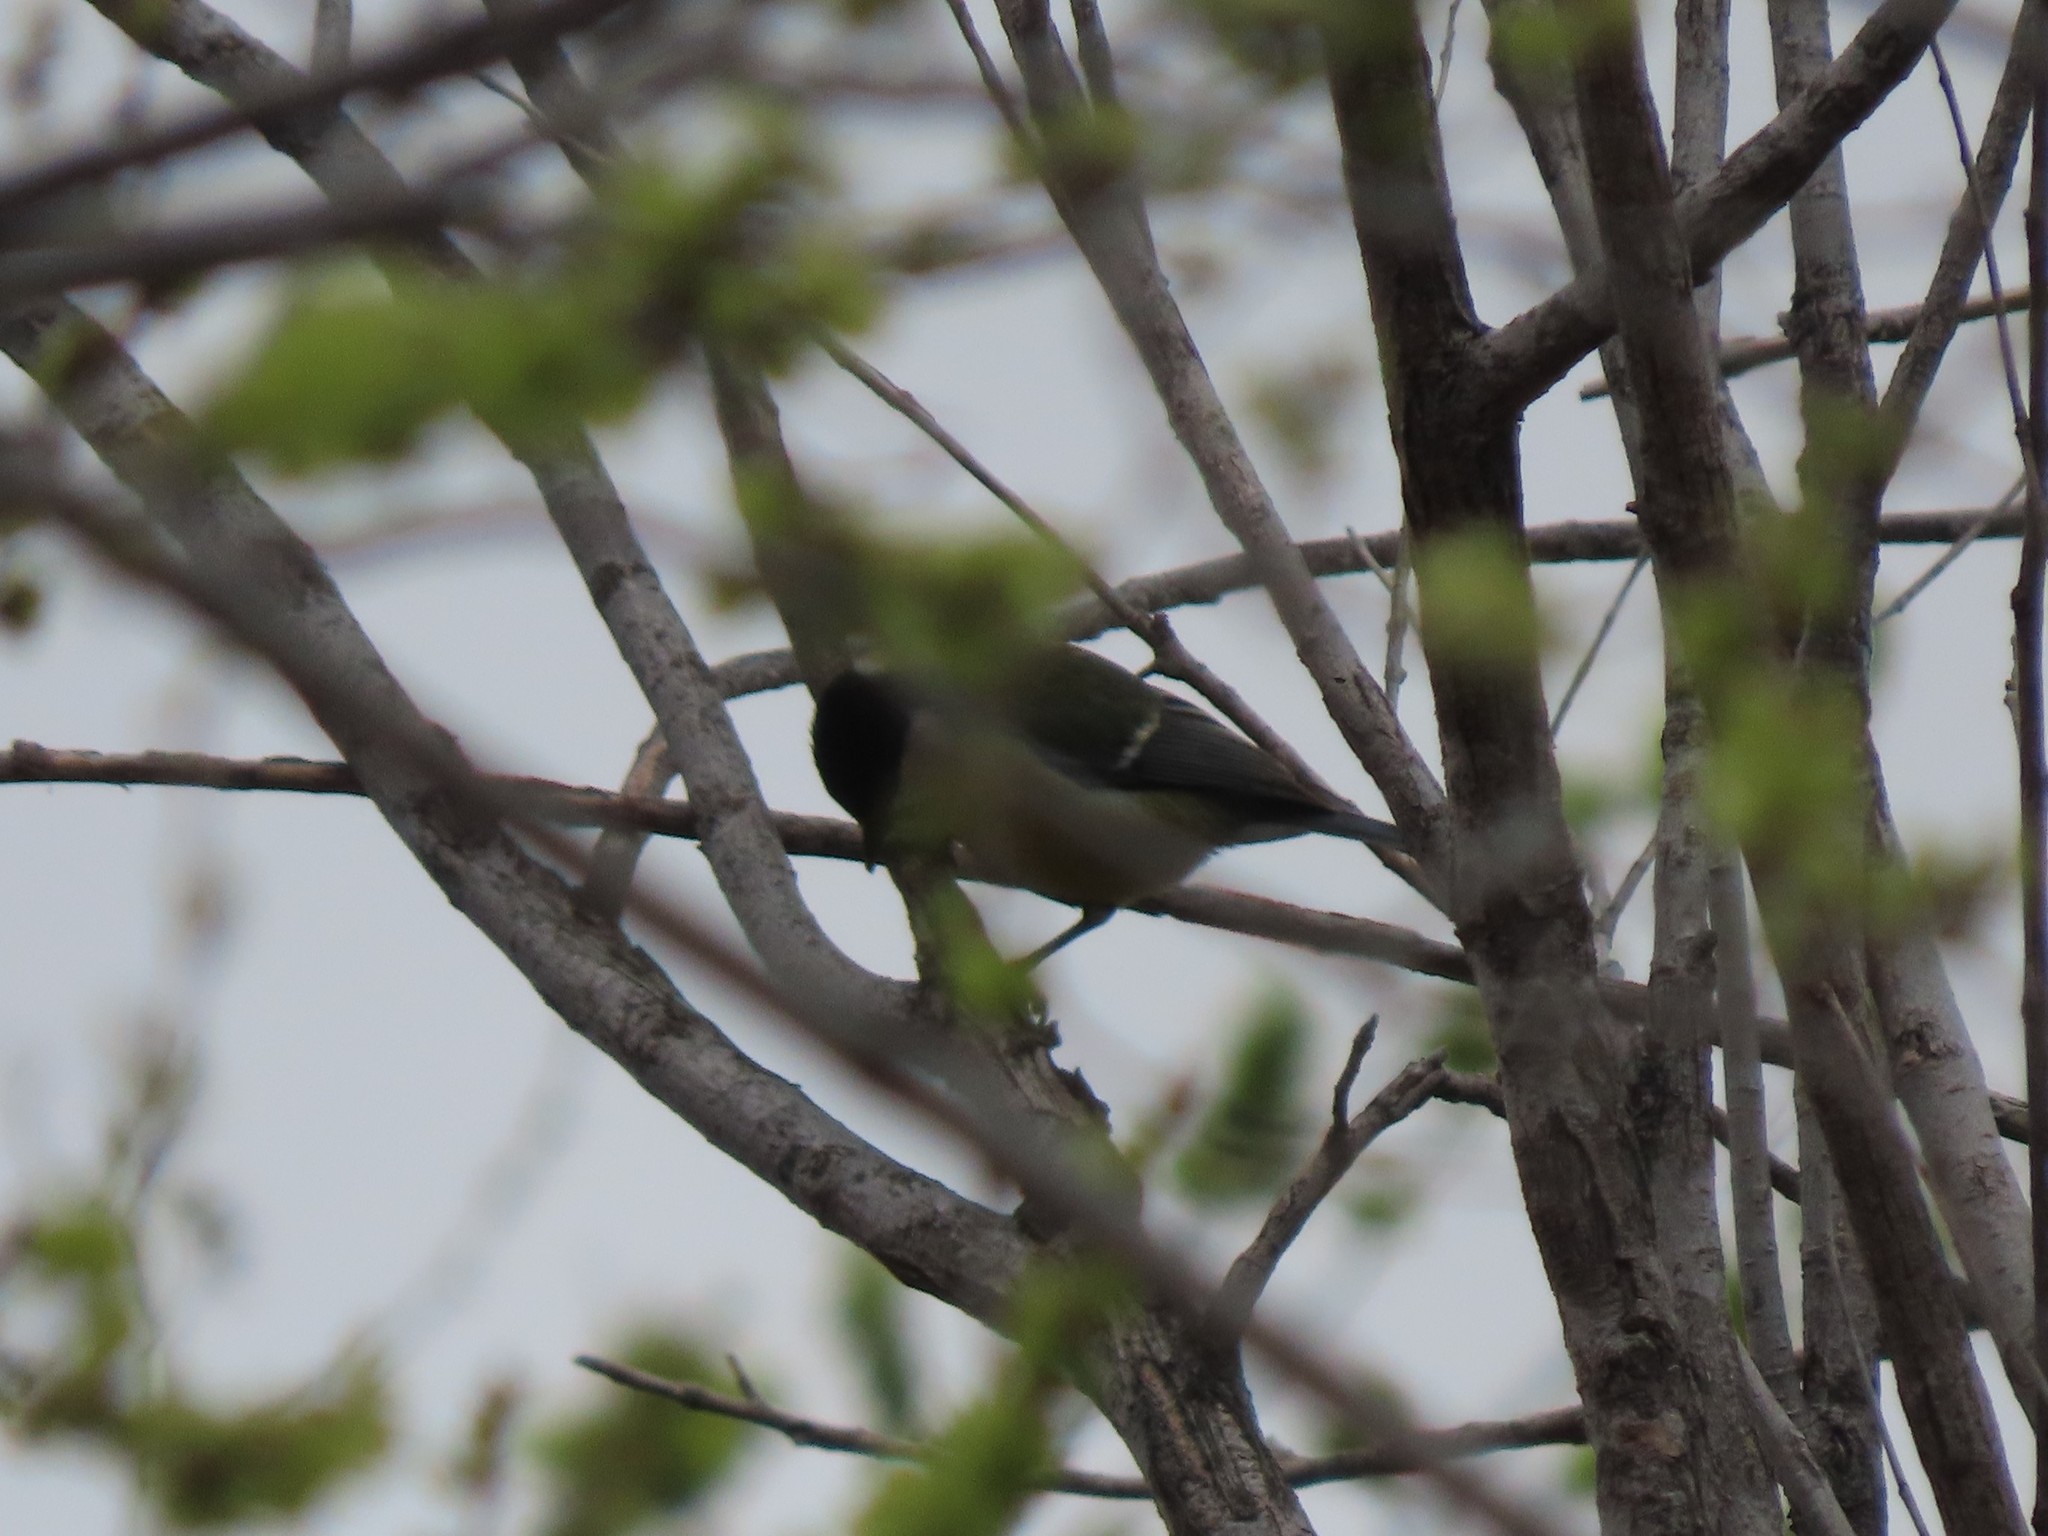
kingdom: Animalia
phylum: Chordata
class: Aves
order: Passeriformes
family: Paridae
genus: Parus
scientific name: Parus major
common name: Great tit
